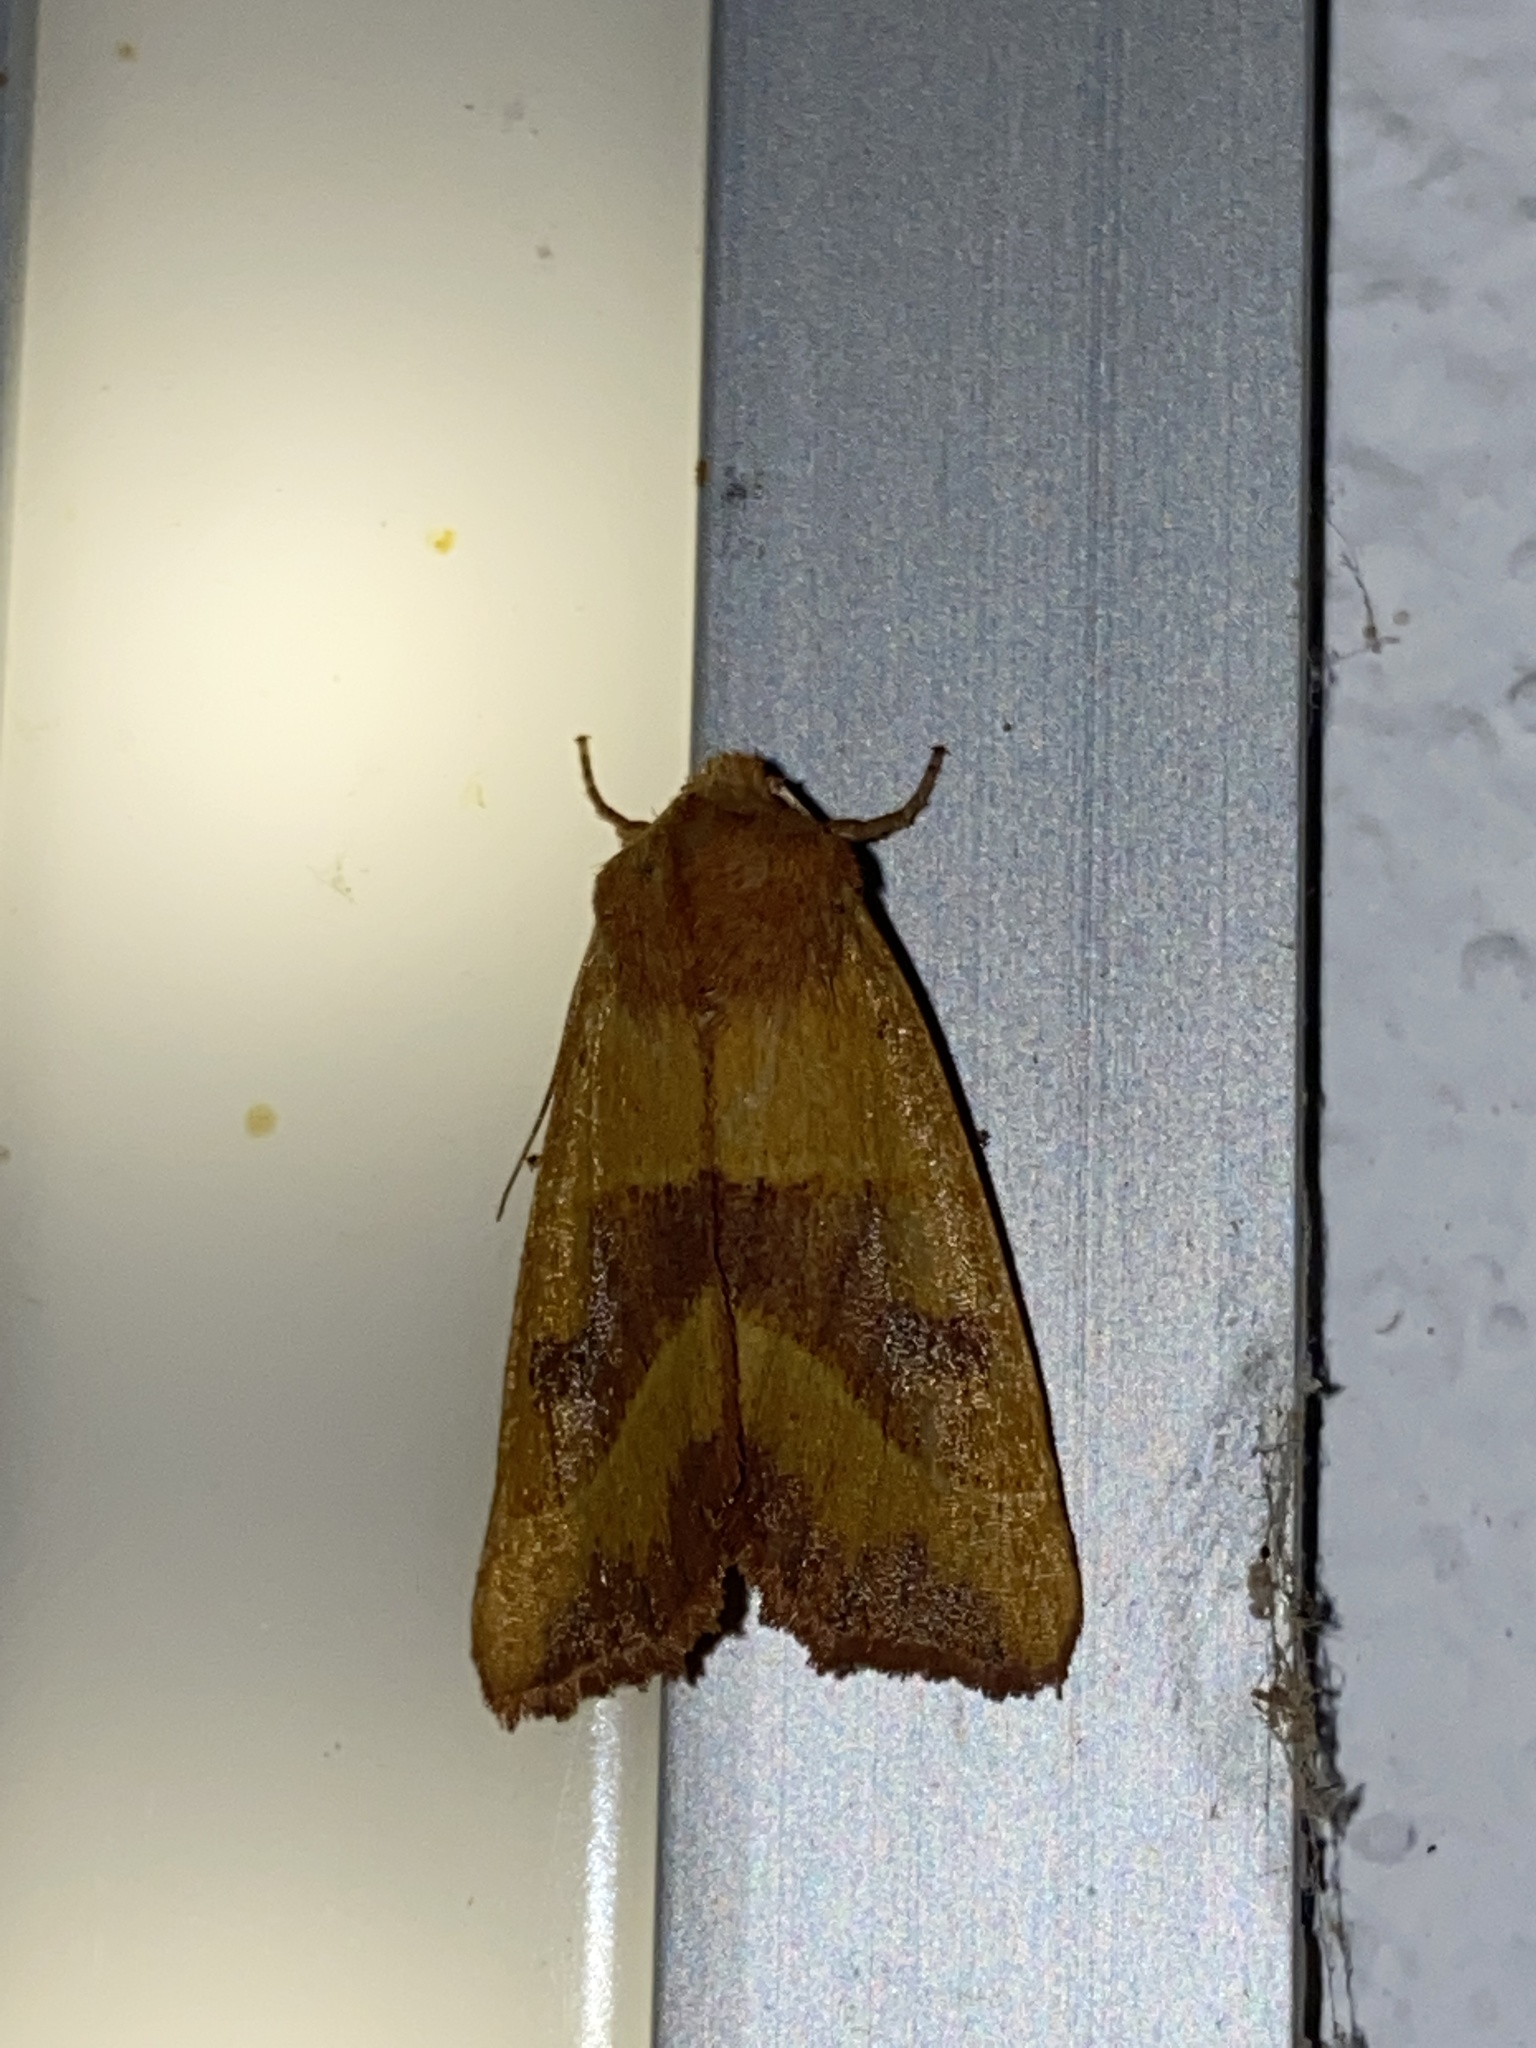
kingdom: Animalia
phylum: Arthropoda
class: Insecta
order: Lepidoptera
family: Noctuidae
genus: Atethmia
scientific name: Atethmia centrago
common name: Centre-barred sallow
